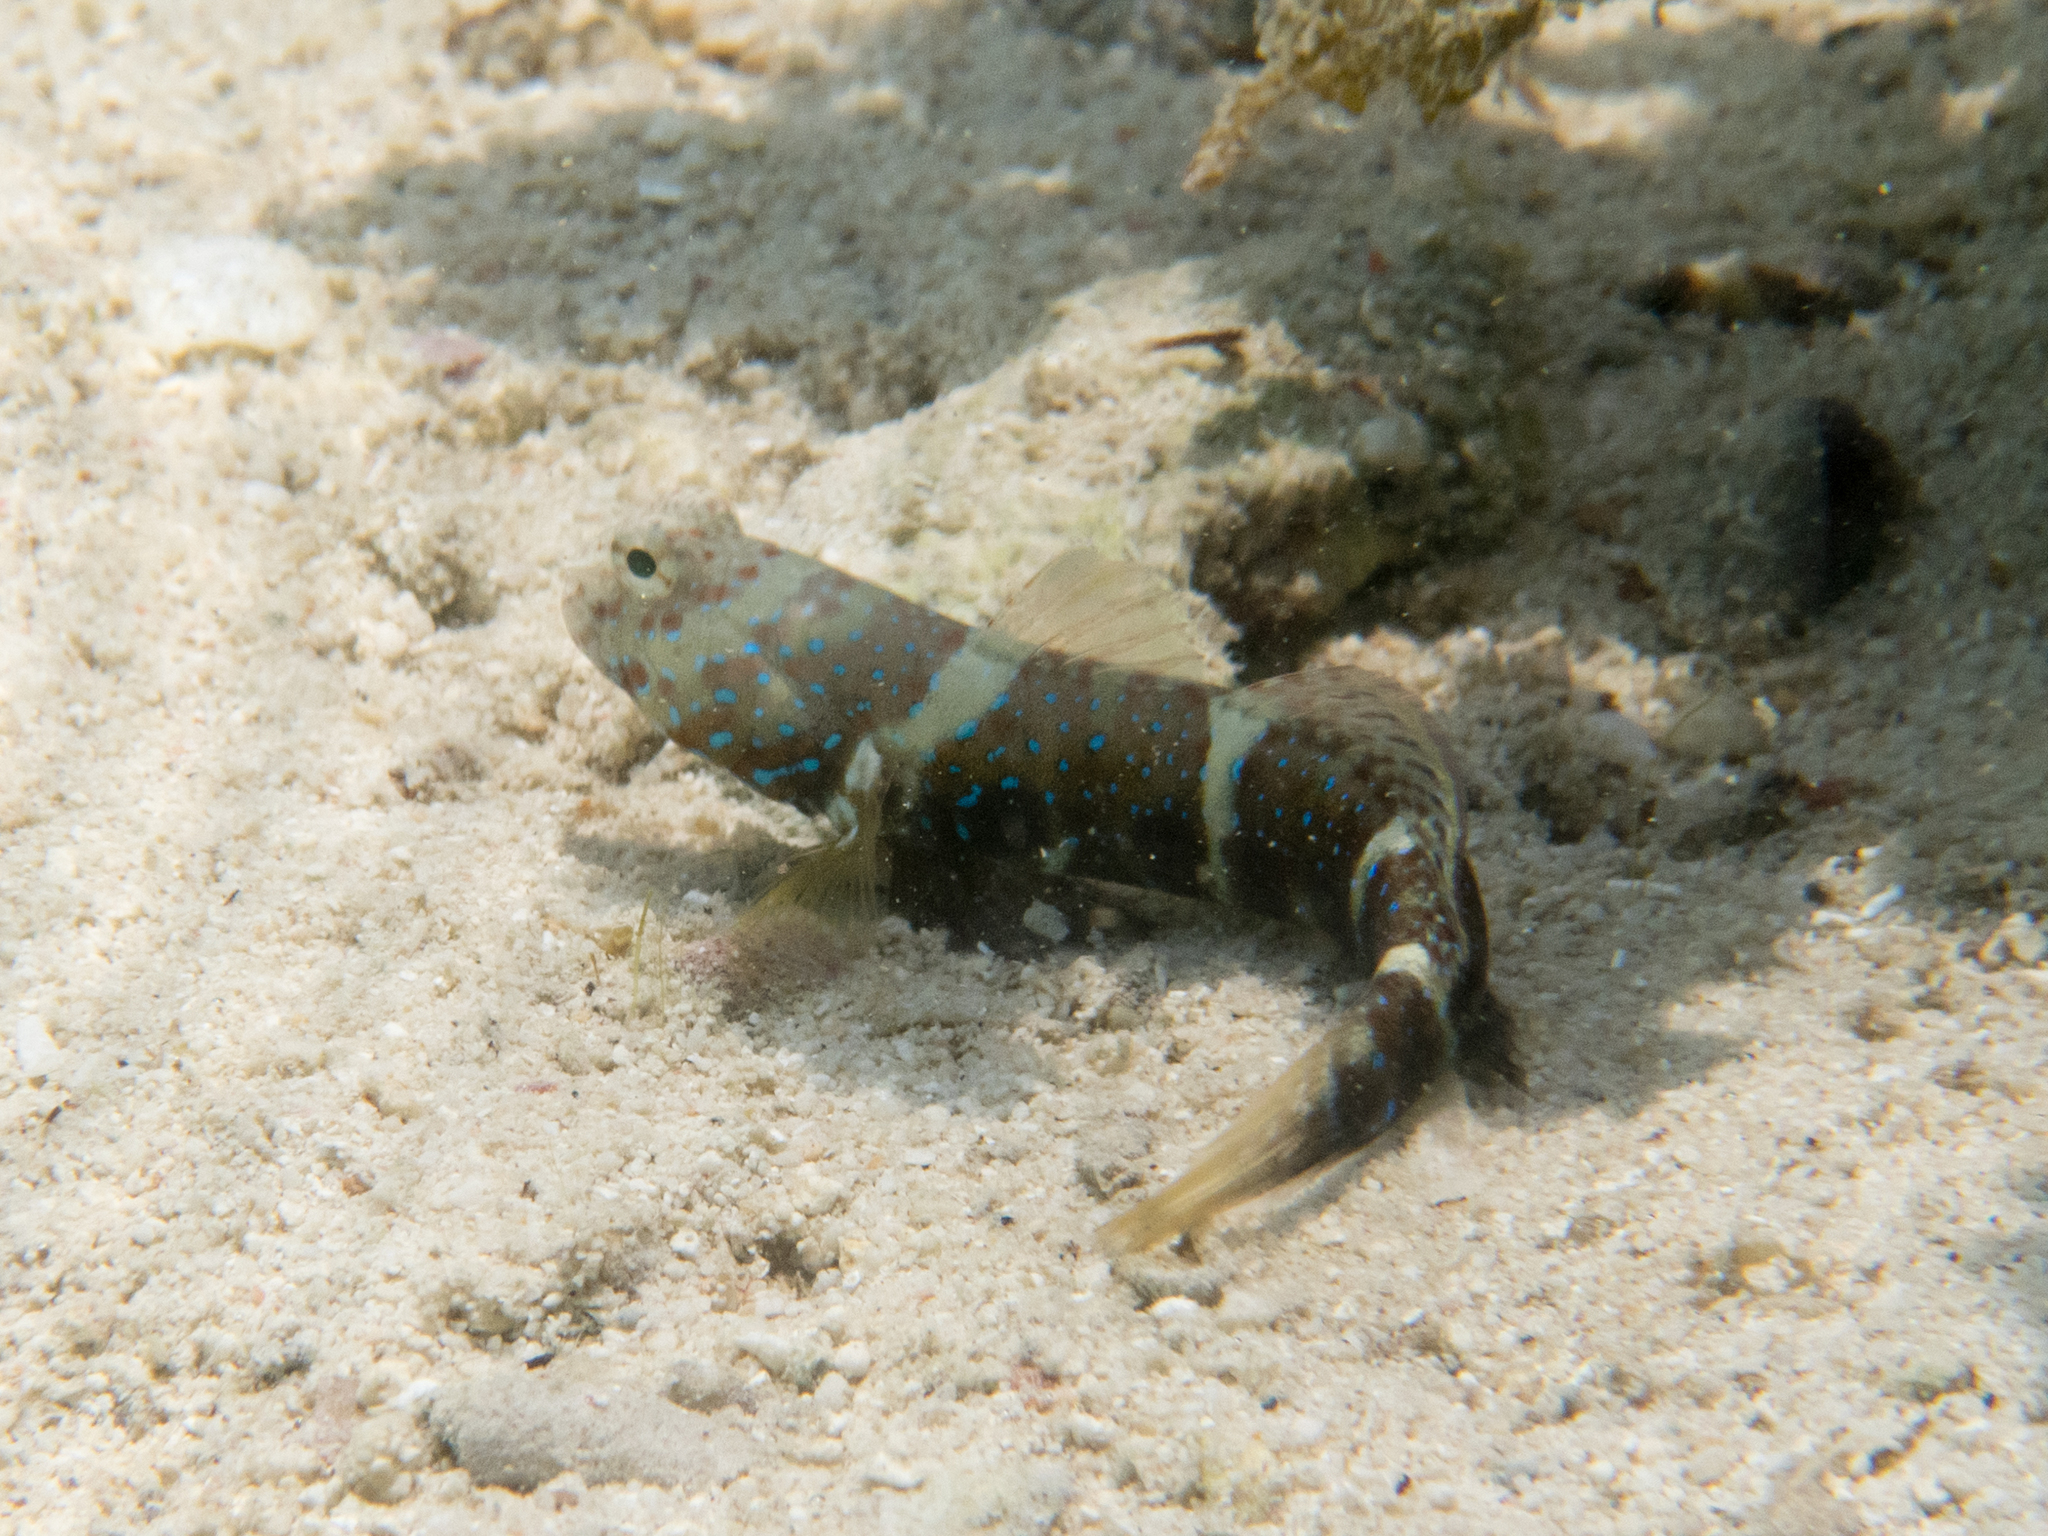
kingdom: Animalia
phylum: Chordata
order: Perciformes
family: Gobiidae
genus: Cryptocentrus
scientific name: Cryptocentrus lutheri
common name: Luther's goby
